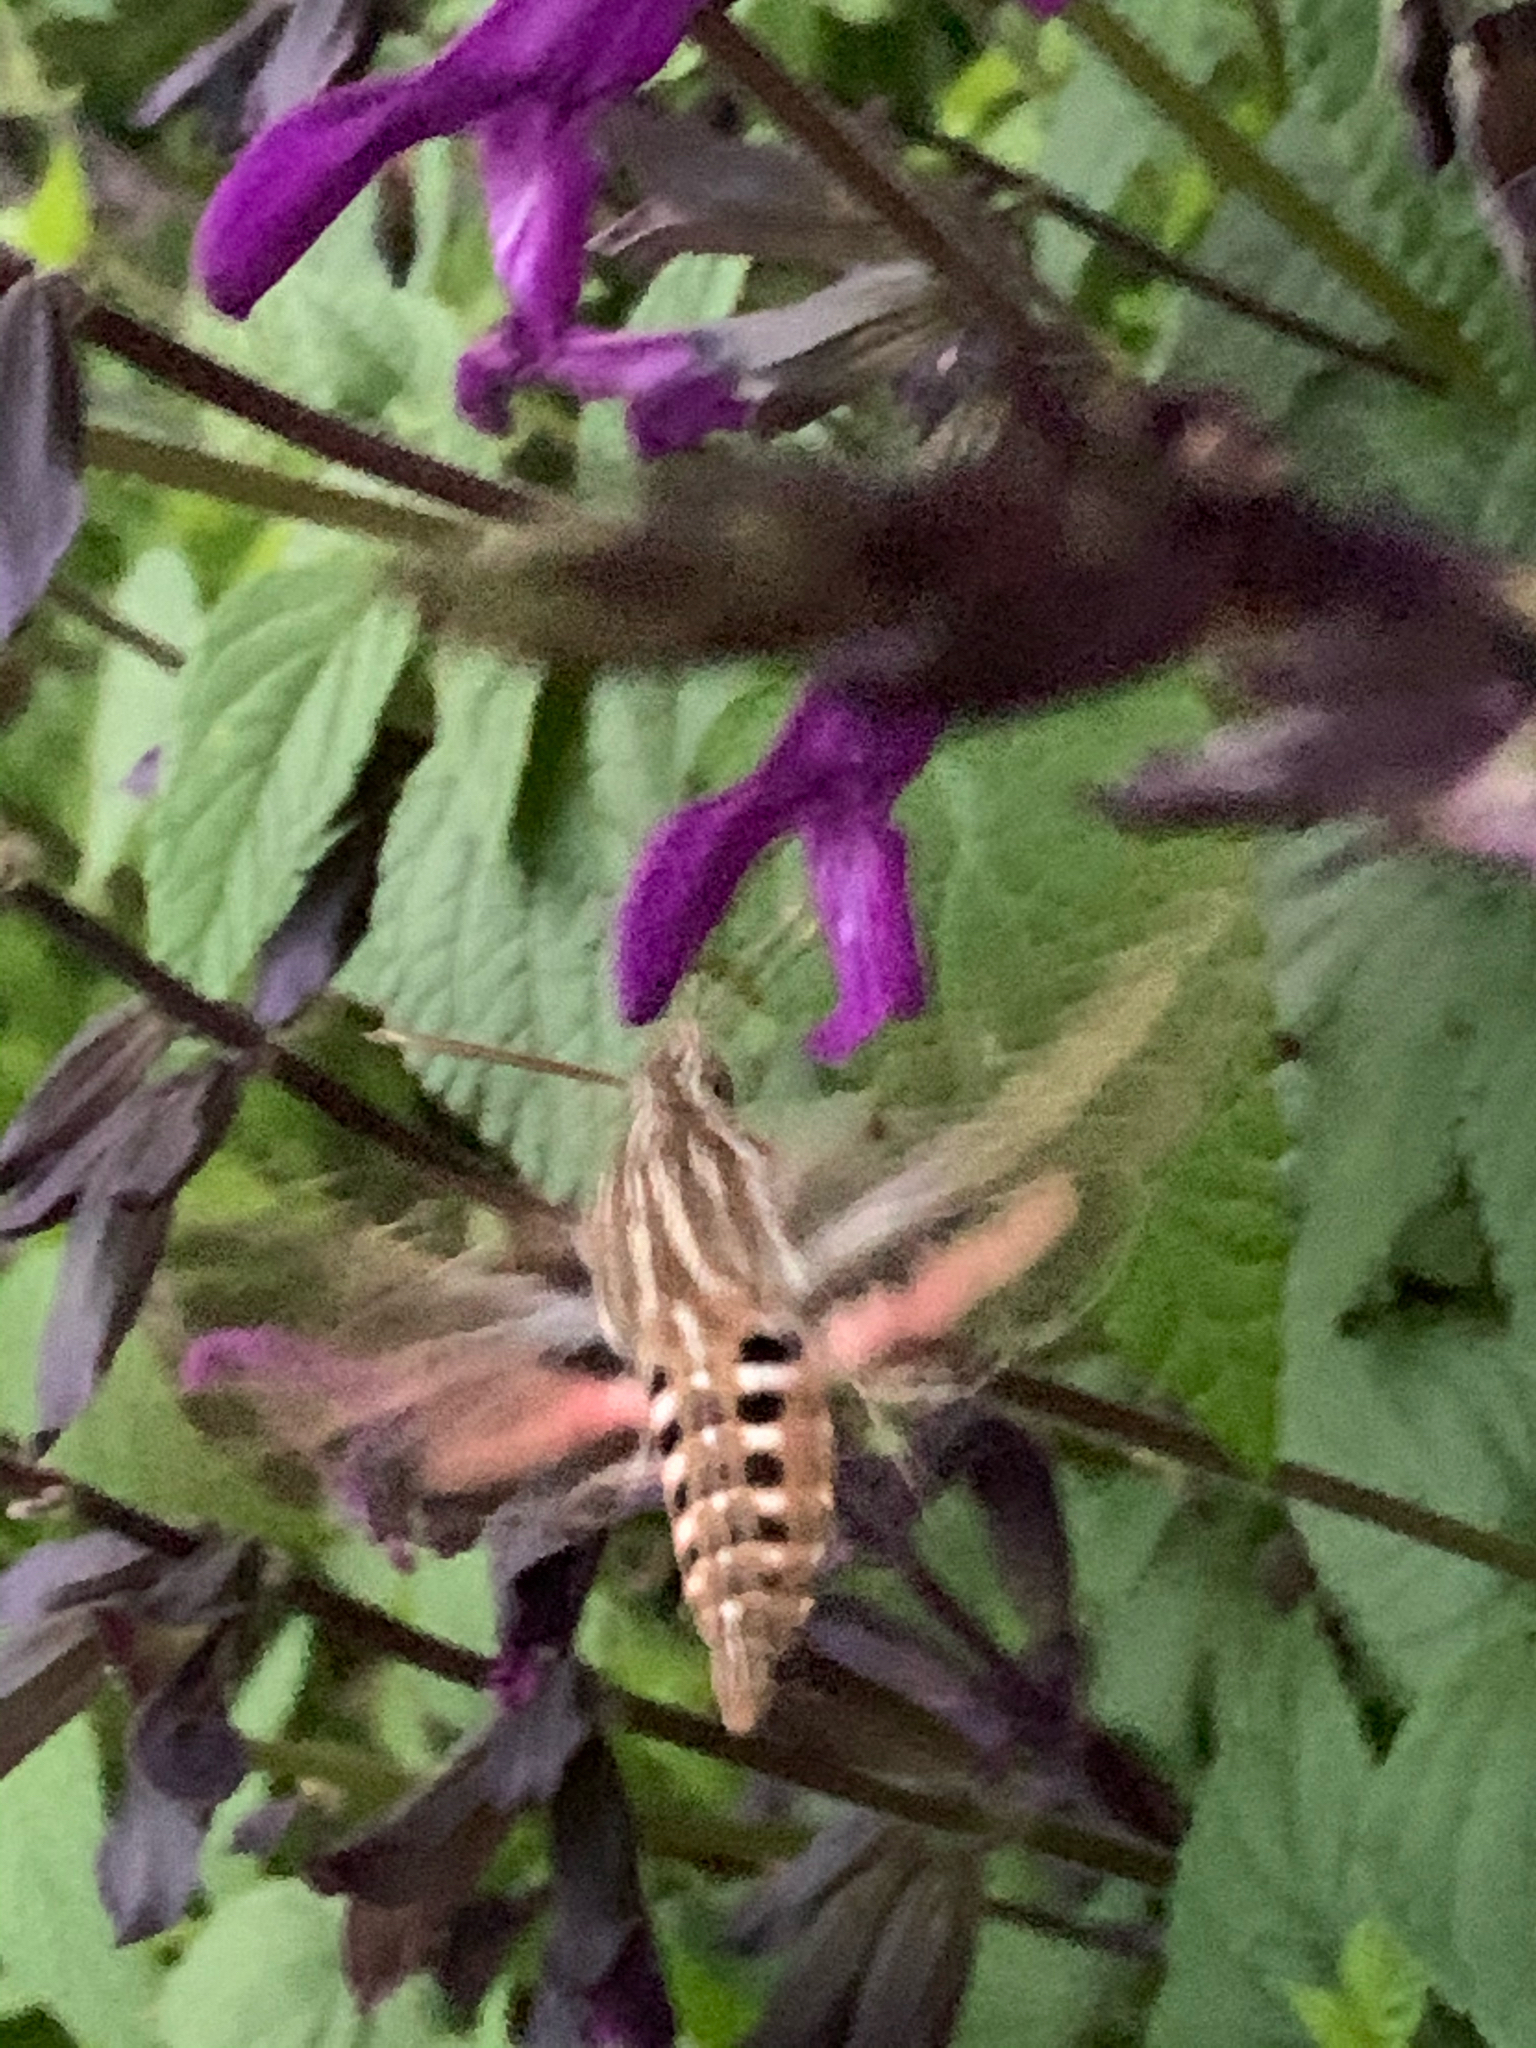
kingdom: Animalia
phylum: Arthropoda
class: Insecta
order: Lepidoptera
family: Sphingidae
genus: Hyles
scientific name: Hyles lineata
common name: White-lined sphinx
